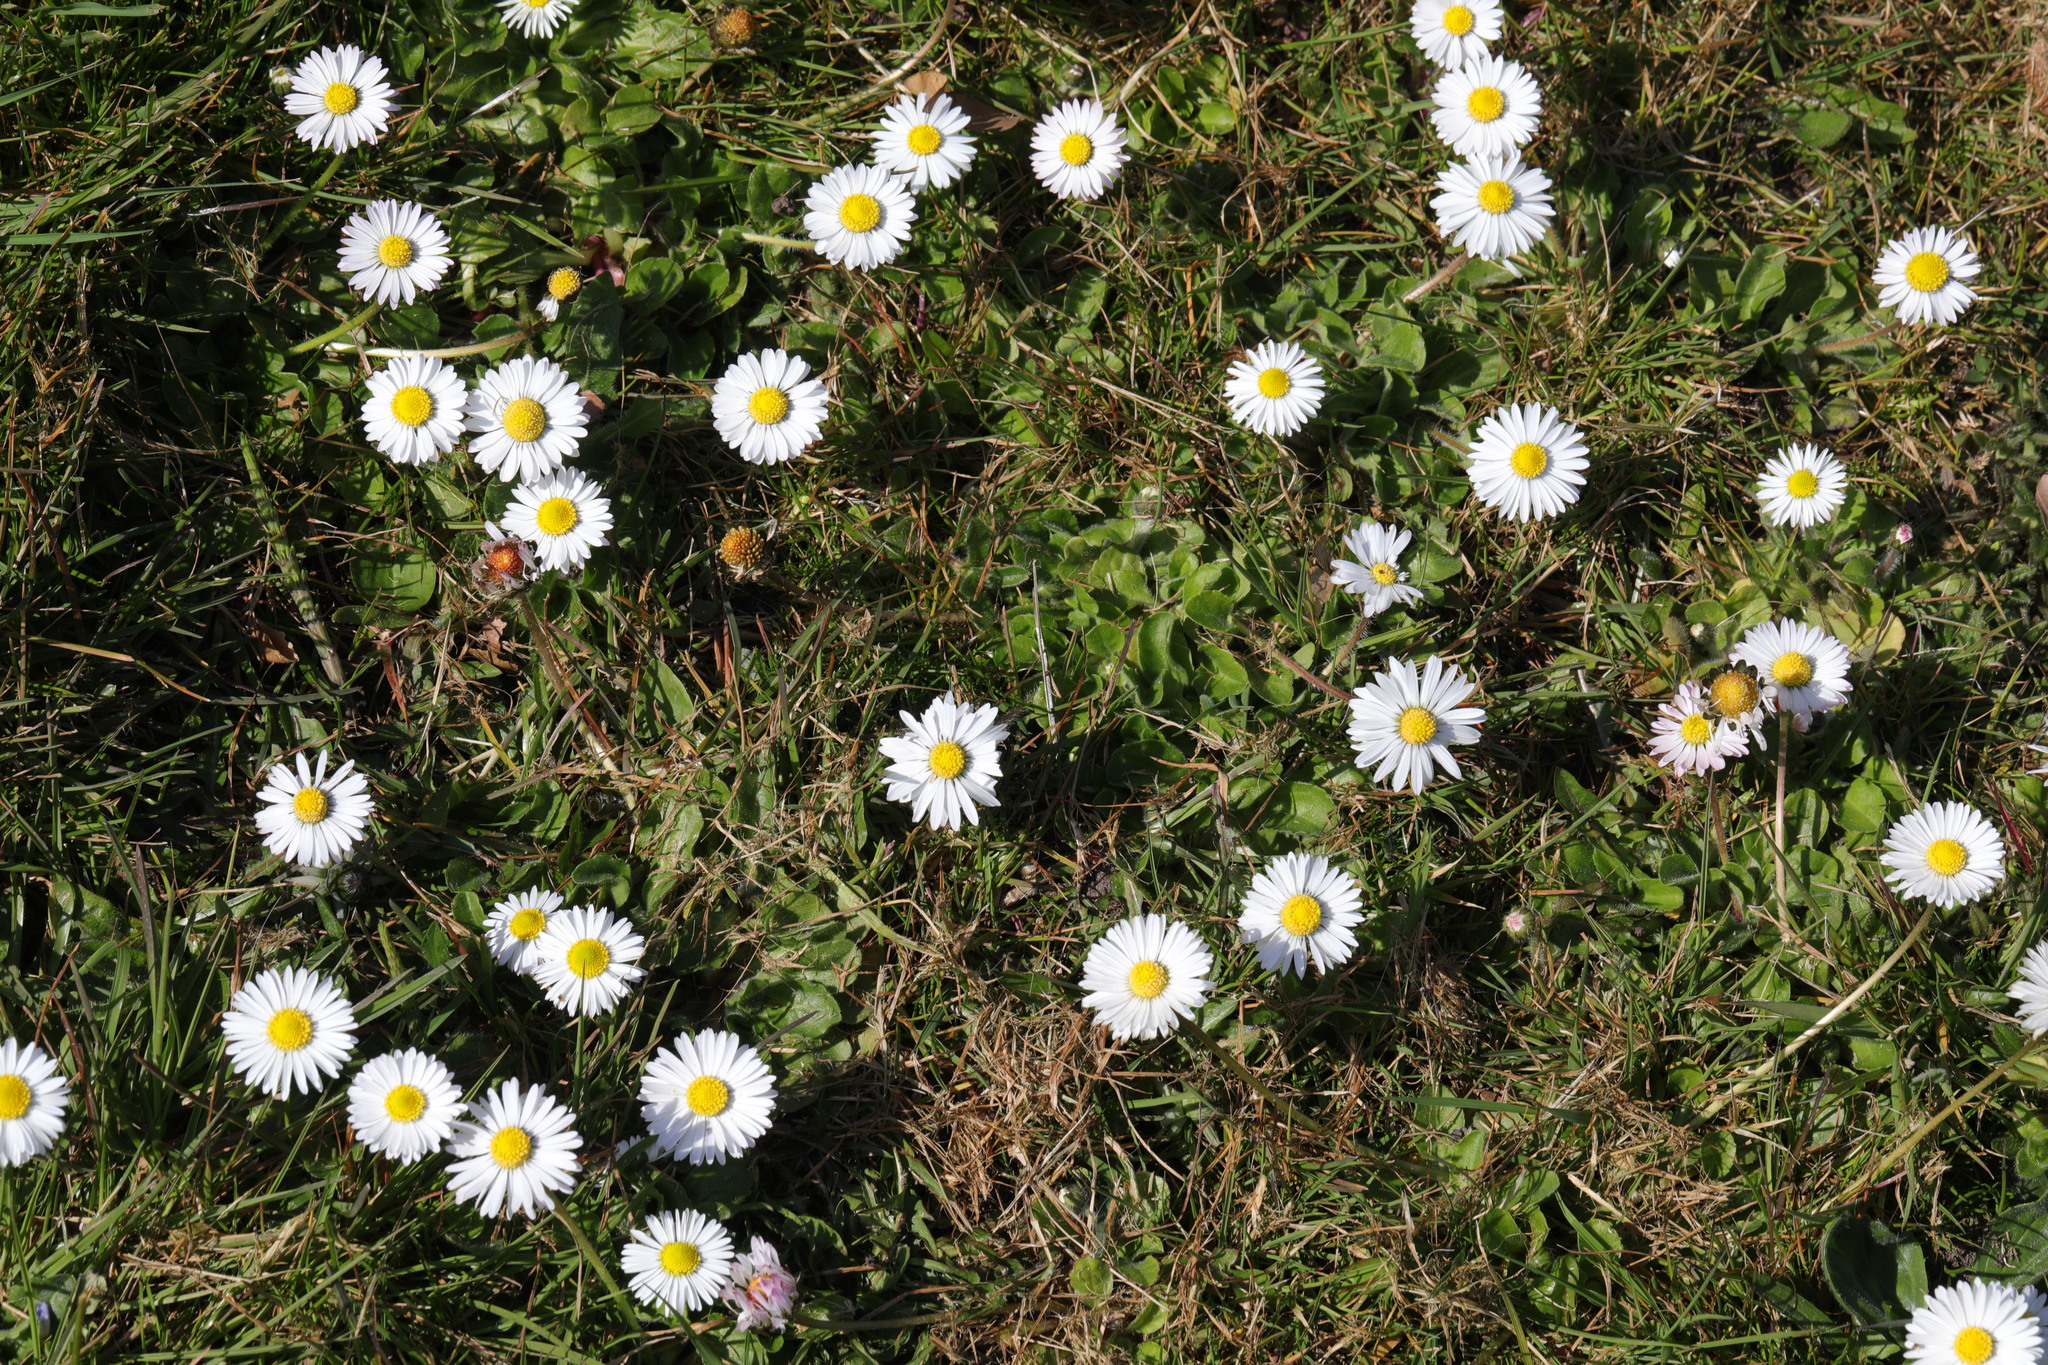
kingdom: Plantae
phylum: Tracheophyta
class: Magnoliopsida
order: Asterales
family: Asteraceae
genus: Bellis
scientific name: Bellis perennis
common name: Lawndaisy
